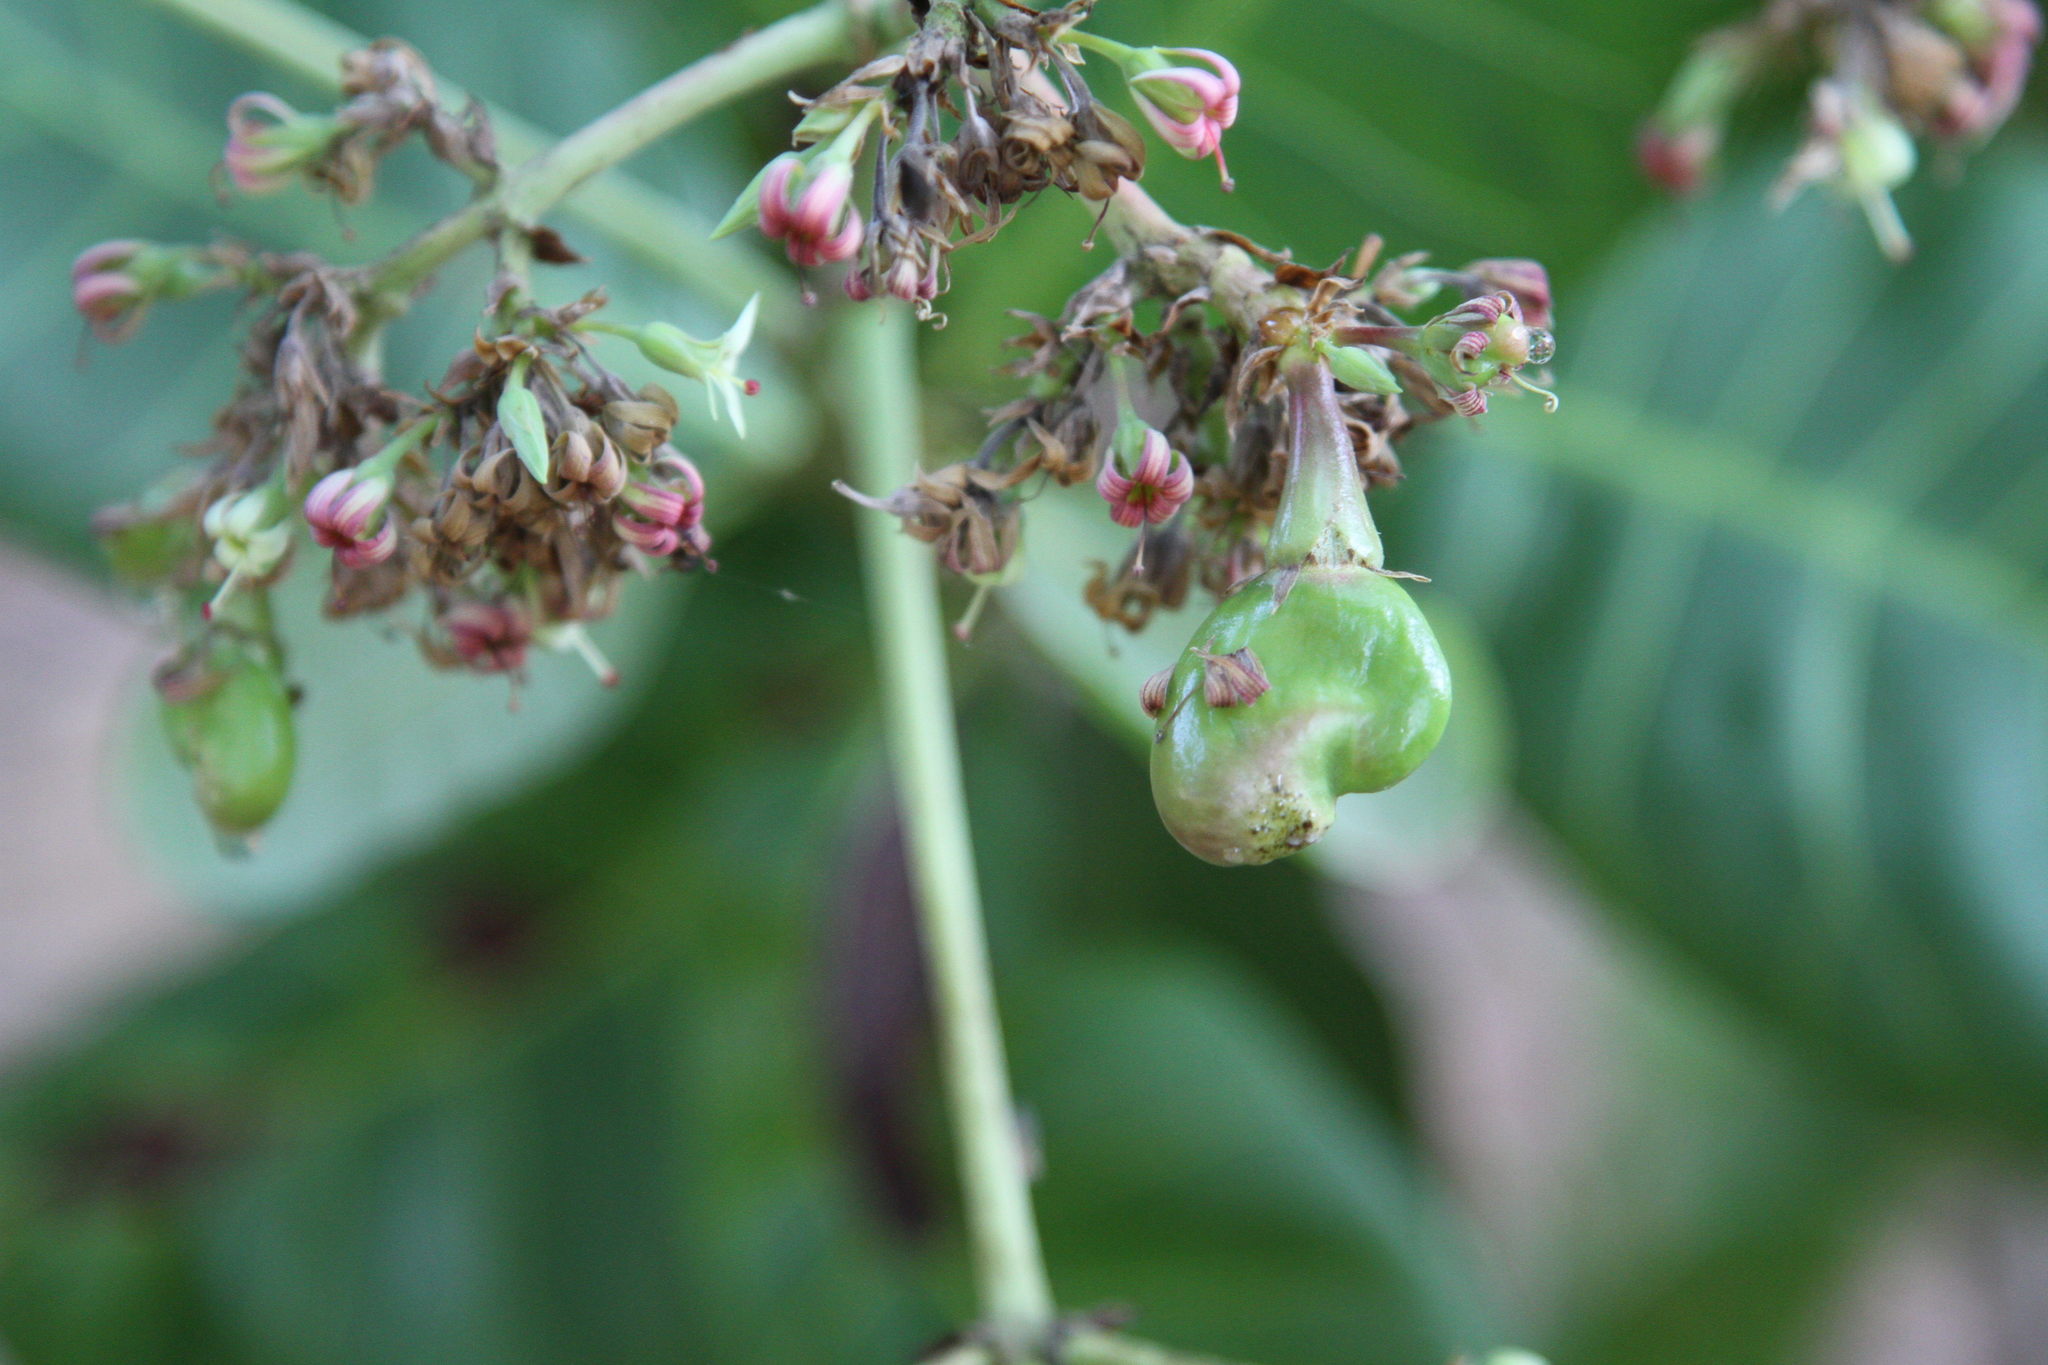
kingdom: Plantae
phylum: Tracheophyta
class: Magnoliopsida
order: Sapindales
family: Anacardiaceae
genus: Anacardium
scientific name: Anacardium occidentale
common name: Cashew
